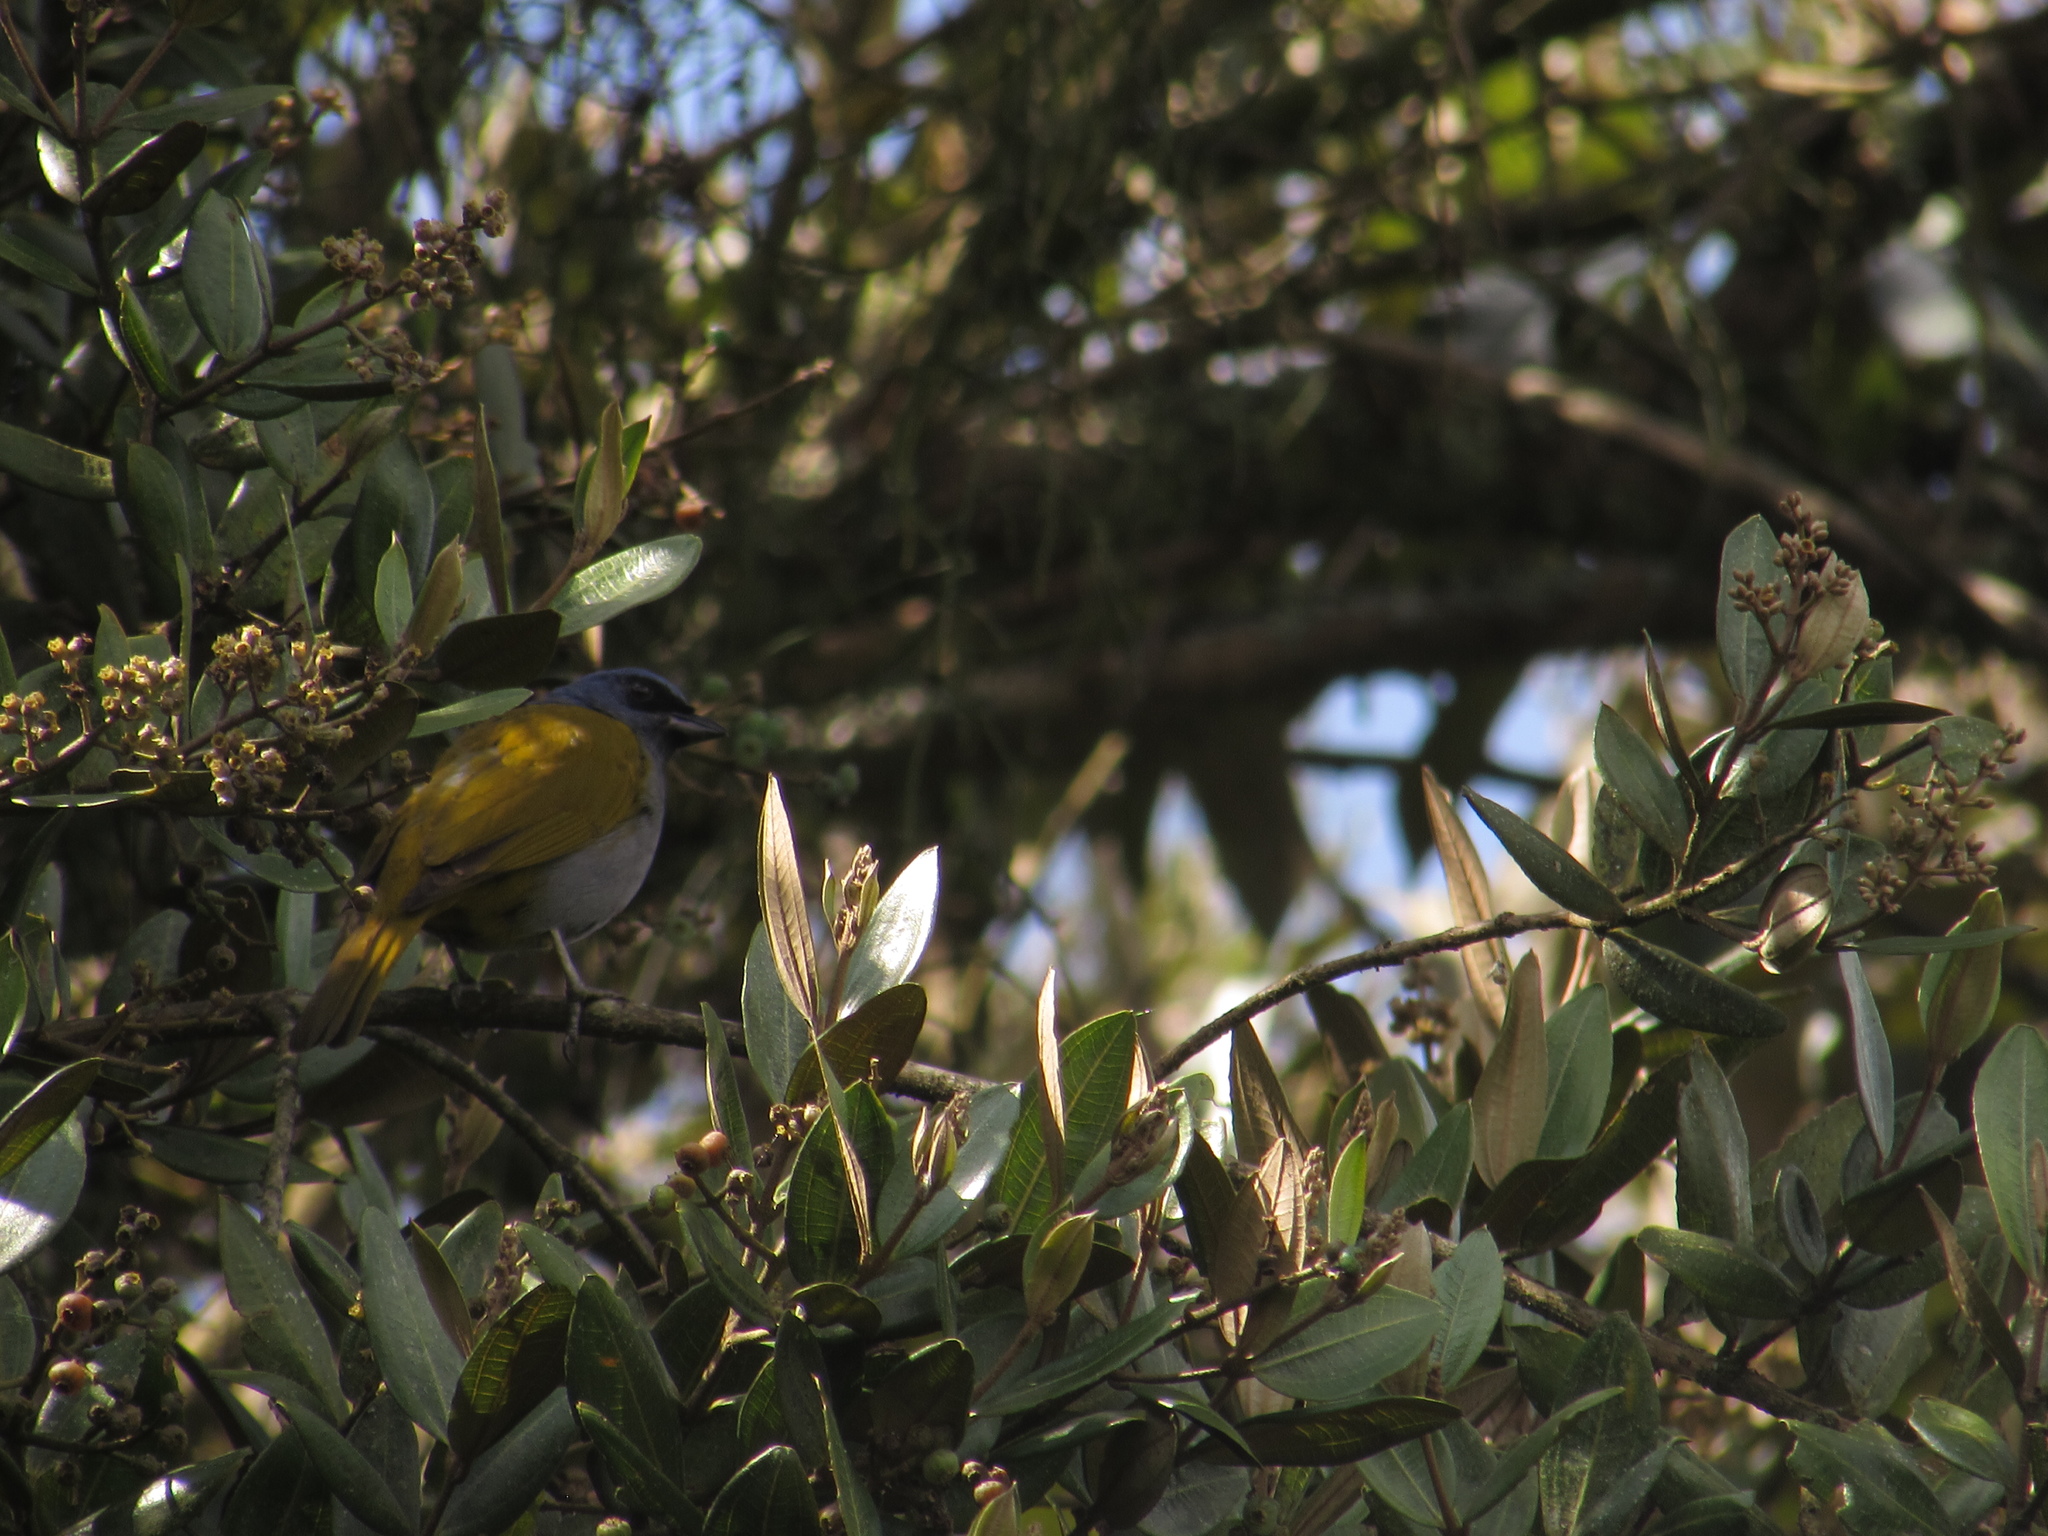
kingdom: Animalia
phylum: Chordata
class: Aves
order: Passeriformes
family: Thraupidae
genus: Sporathraupis
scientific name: Sporathraupis cyanocephala
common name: Blue-capped tanager
